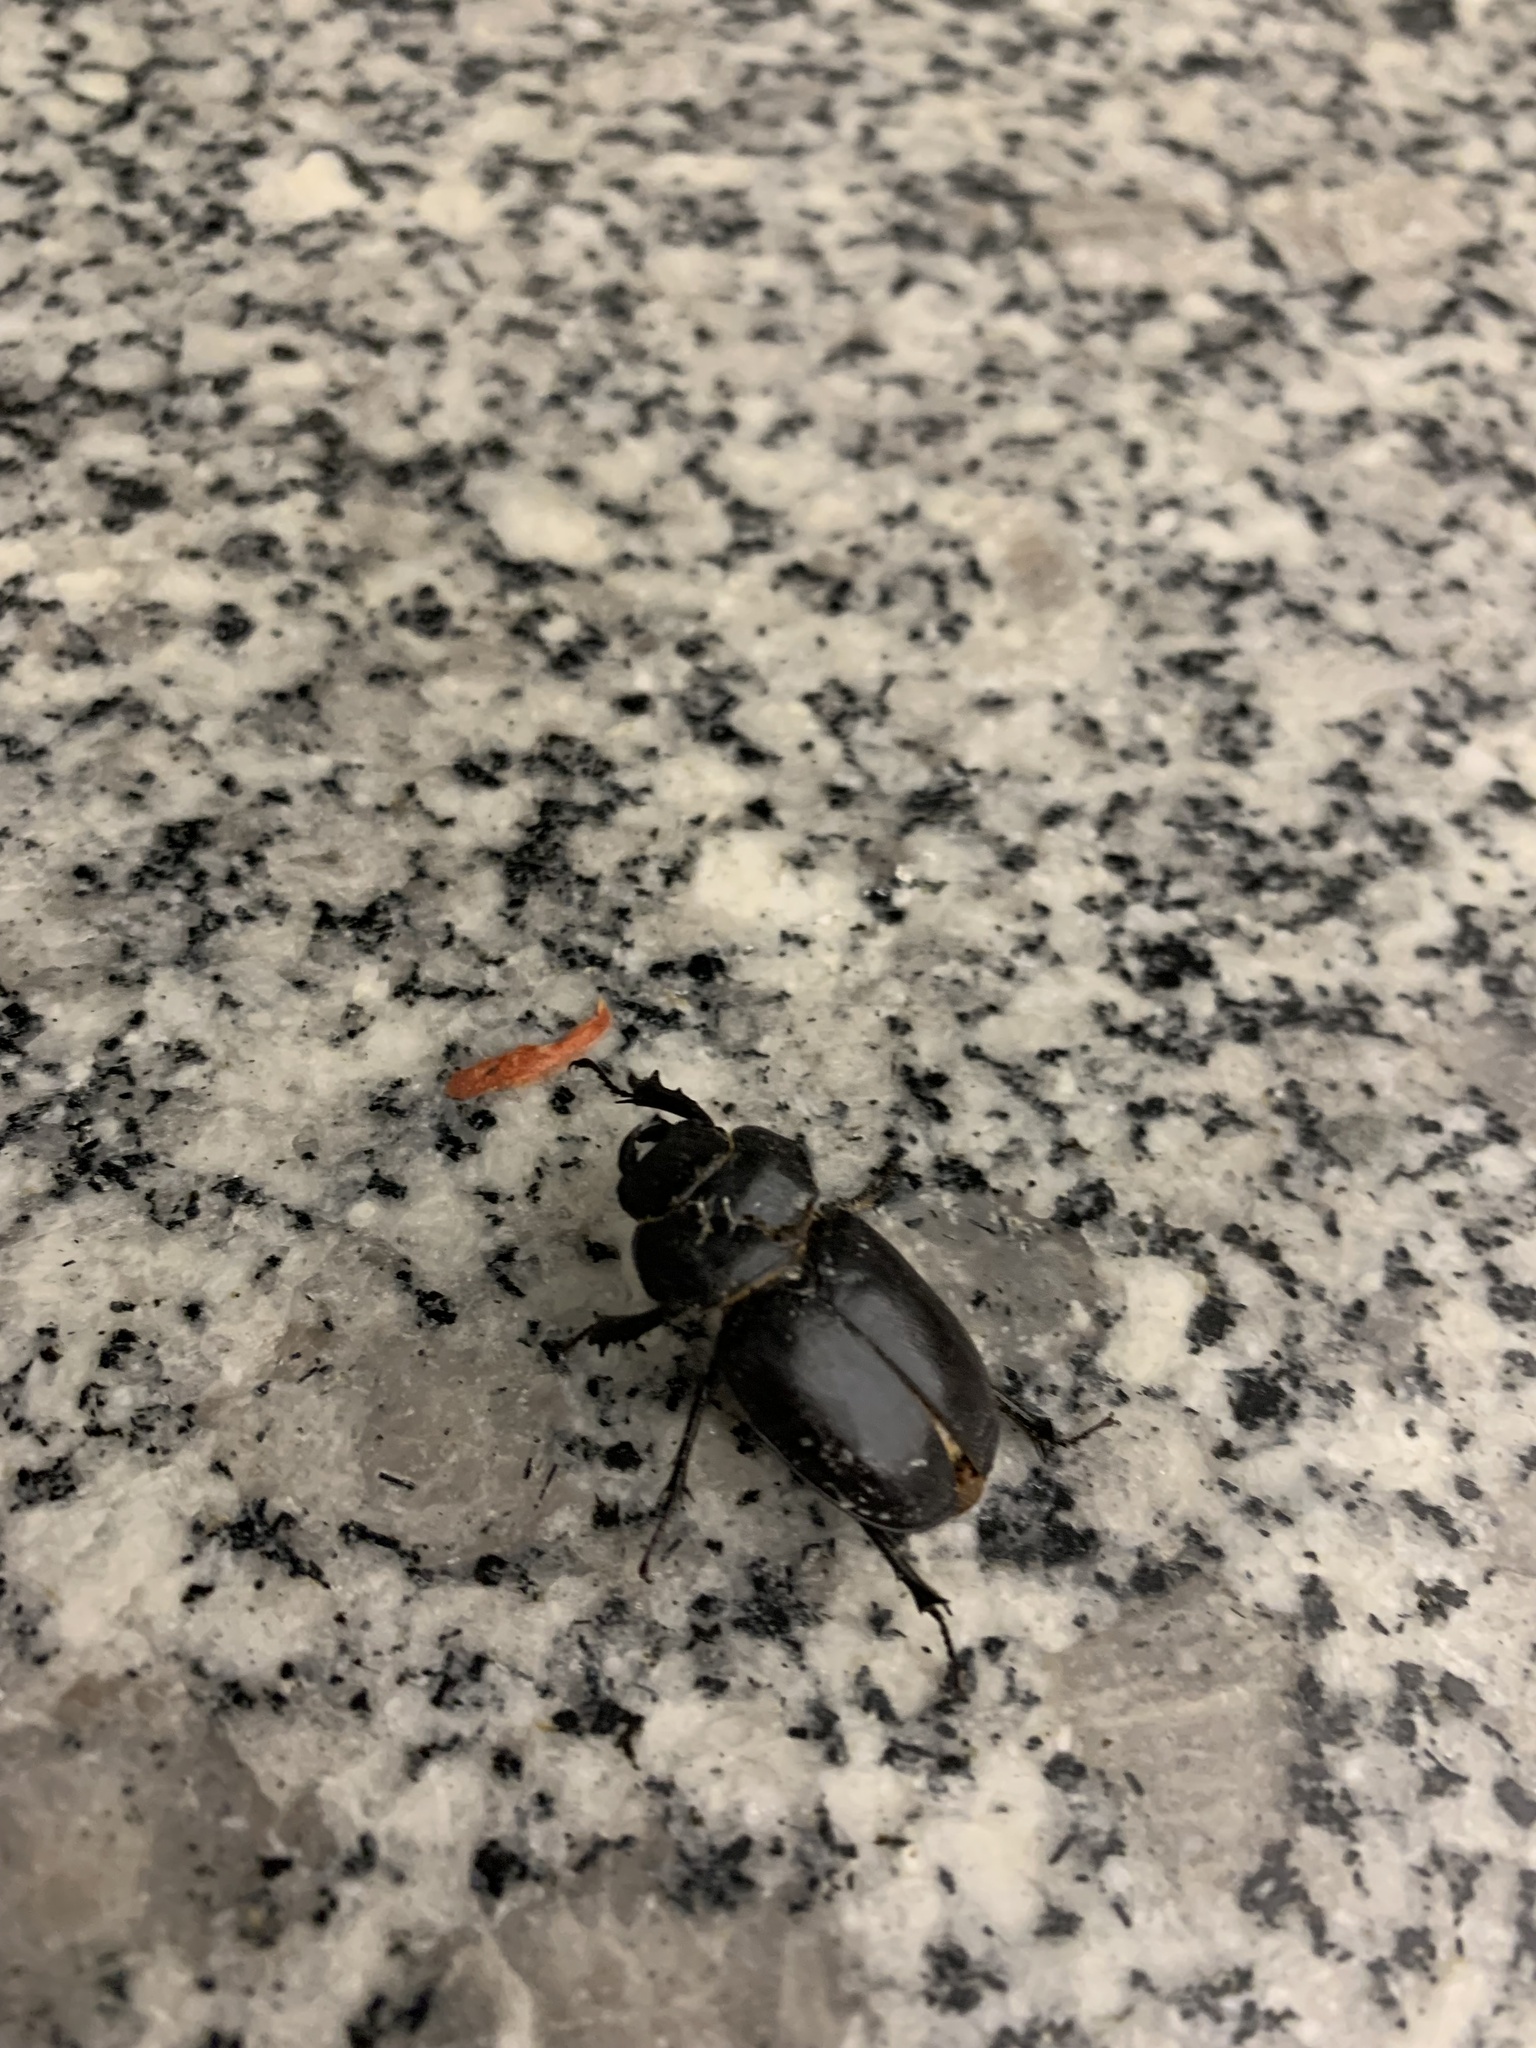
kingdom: Animalia
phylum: Arthropoda
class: Insecta
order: Coleoptera
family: Lucanidae
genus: Lucanus
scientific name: Lucanus mazama
